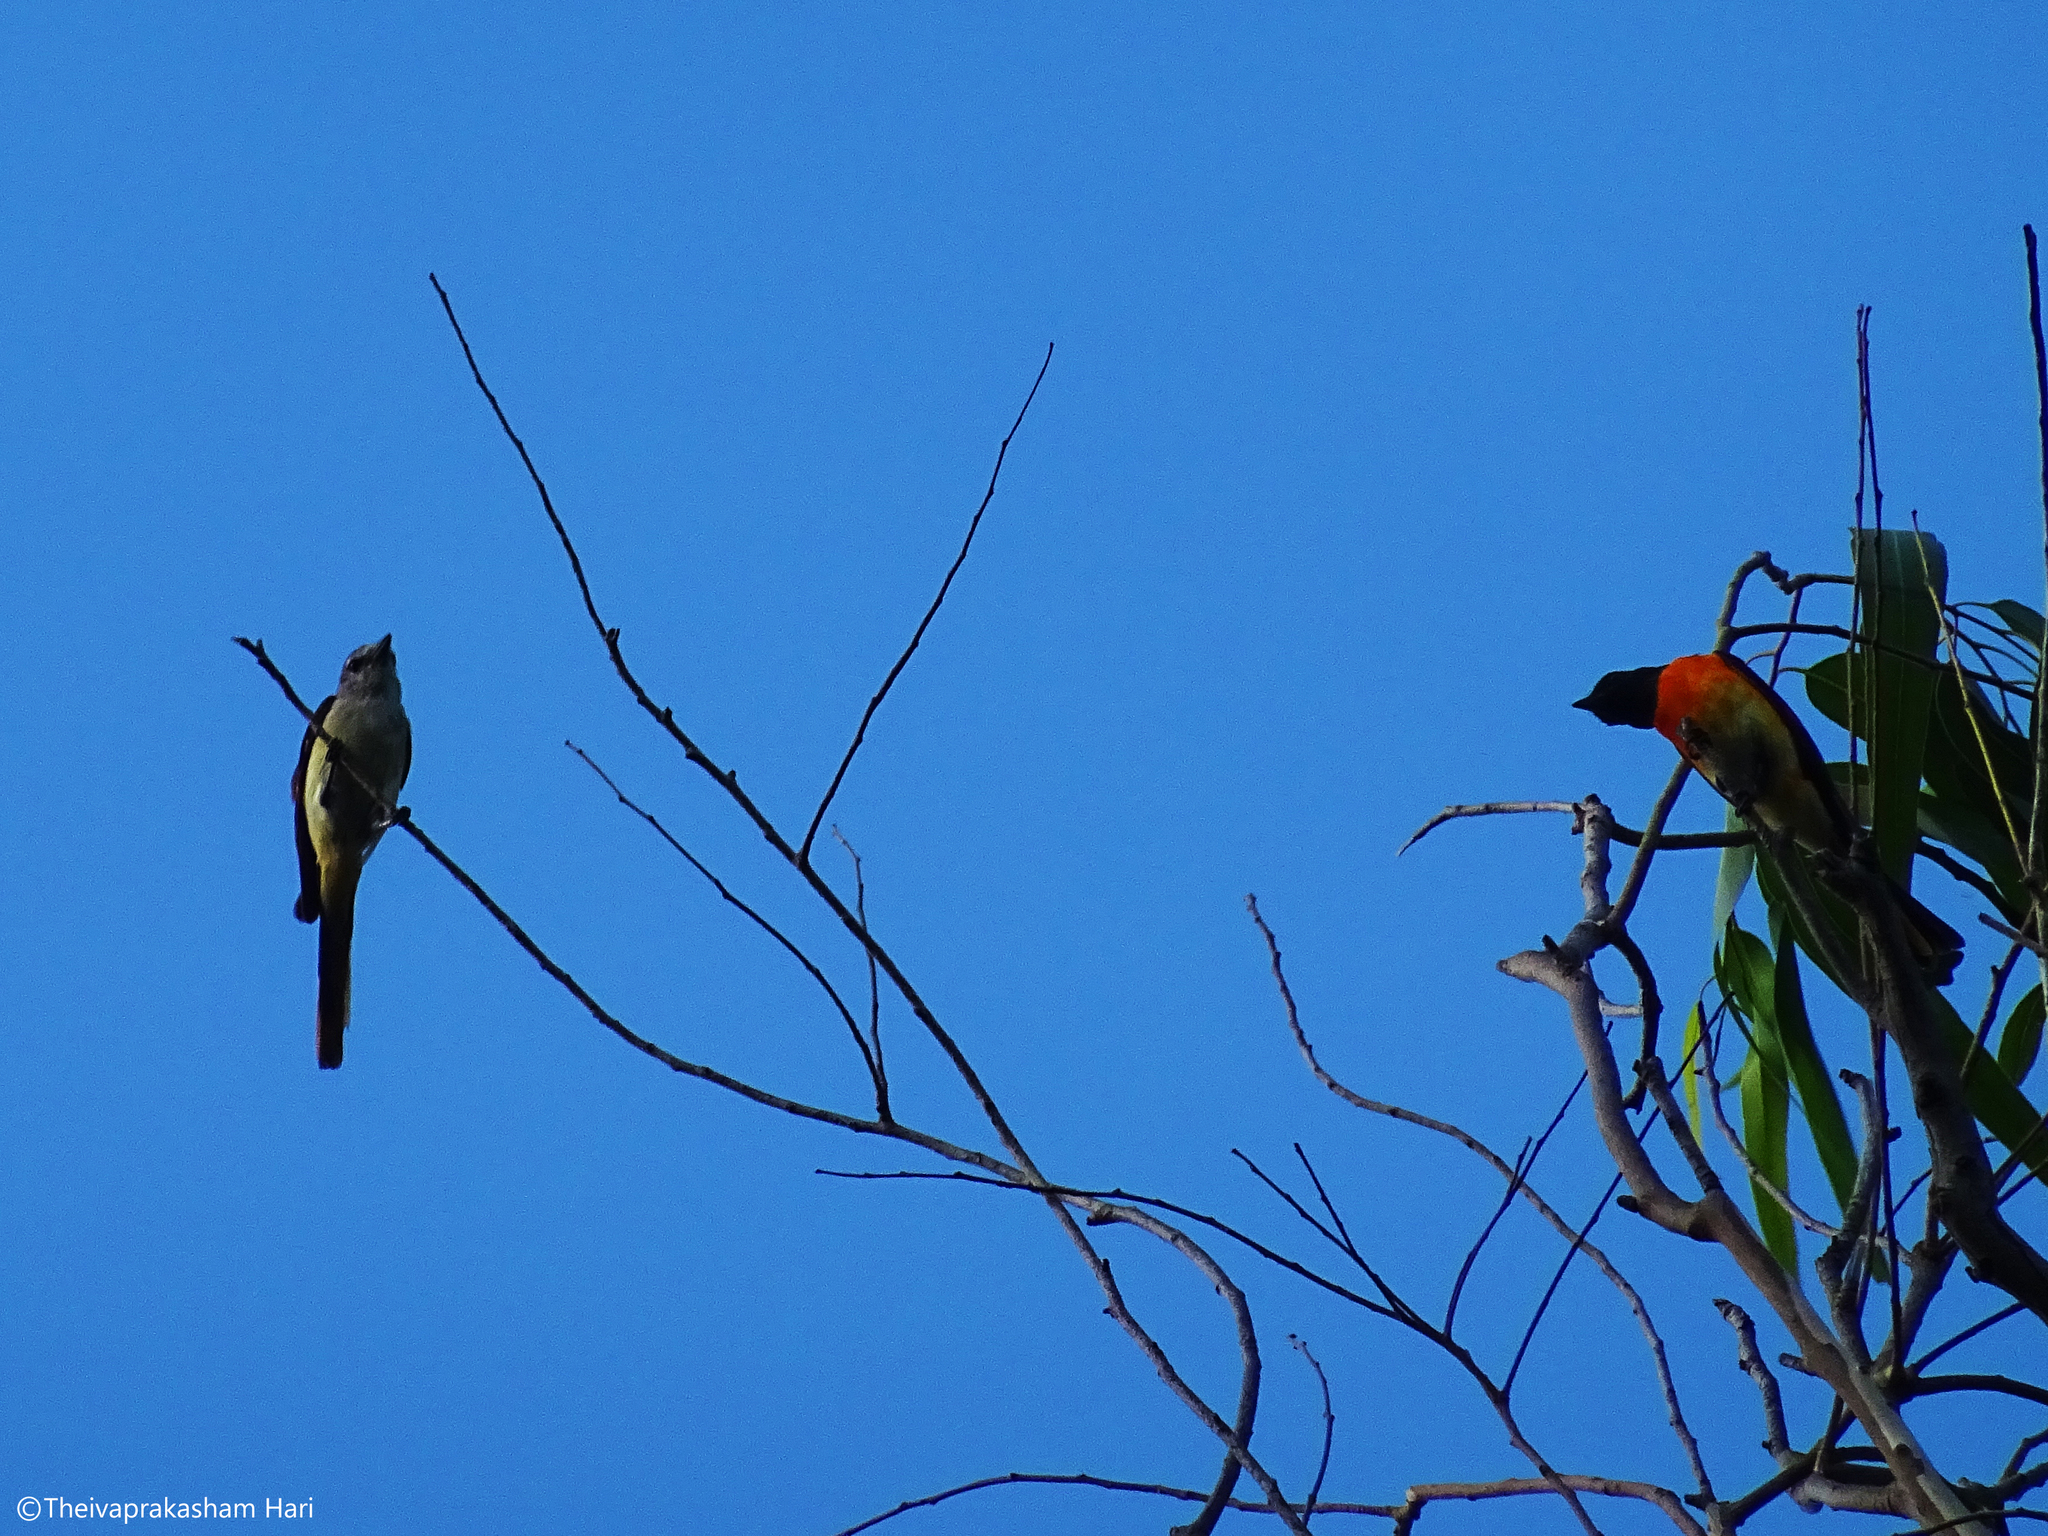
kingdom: Animalia
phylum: Chordata
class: Aves
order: Passeriformes
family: Campephagidae
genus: Pericrocotus
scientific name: Pericrocotus cinnamomeus
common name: Small minivet
